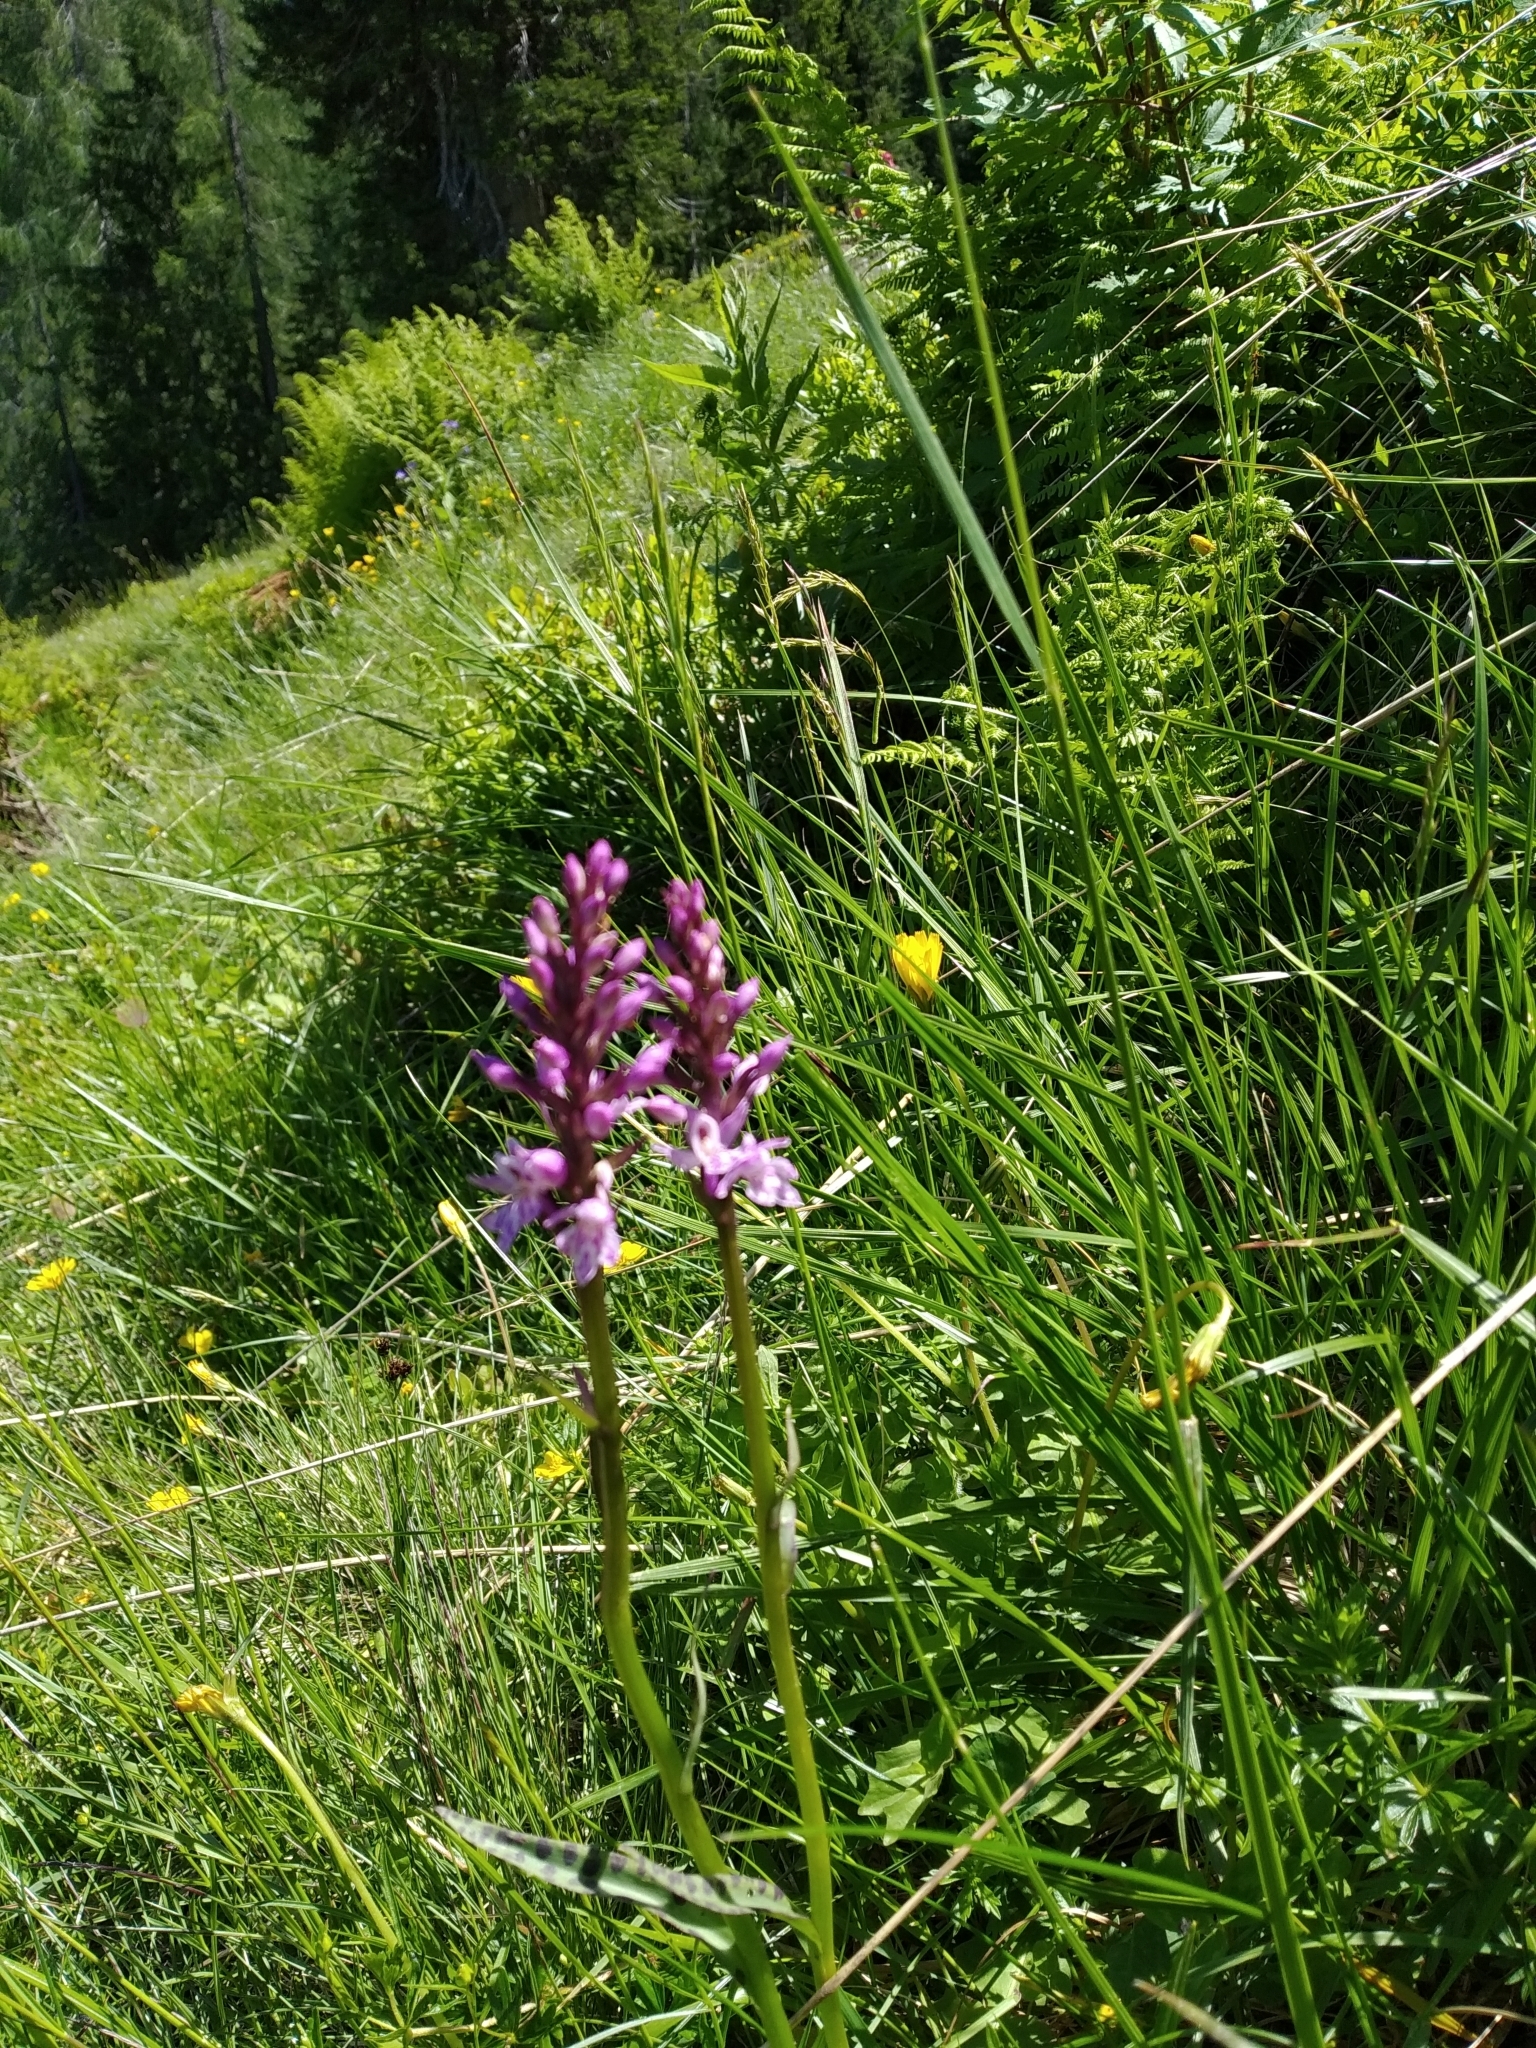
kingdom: Plantae
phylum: Tracheophyta
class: Liliopsida
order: Asparagales
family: Orchidaceae
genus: Dactylorhiza
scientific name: Dactylorhiza maculata
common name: Heath spotted-orchid
